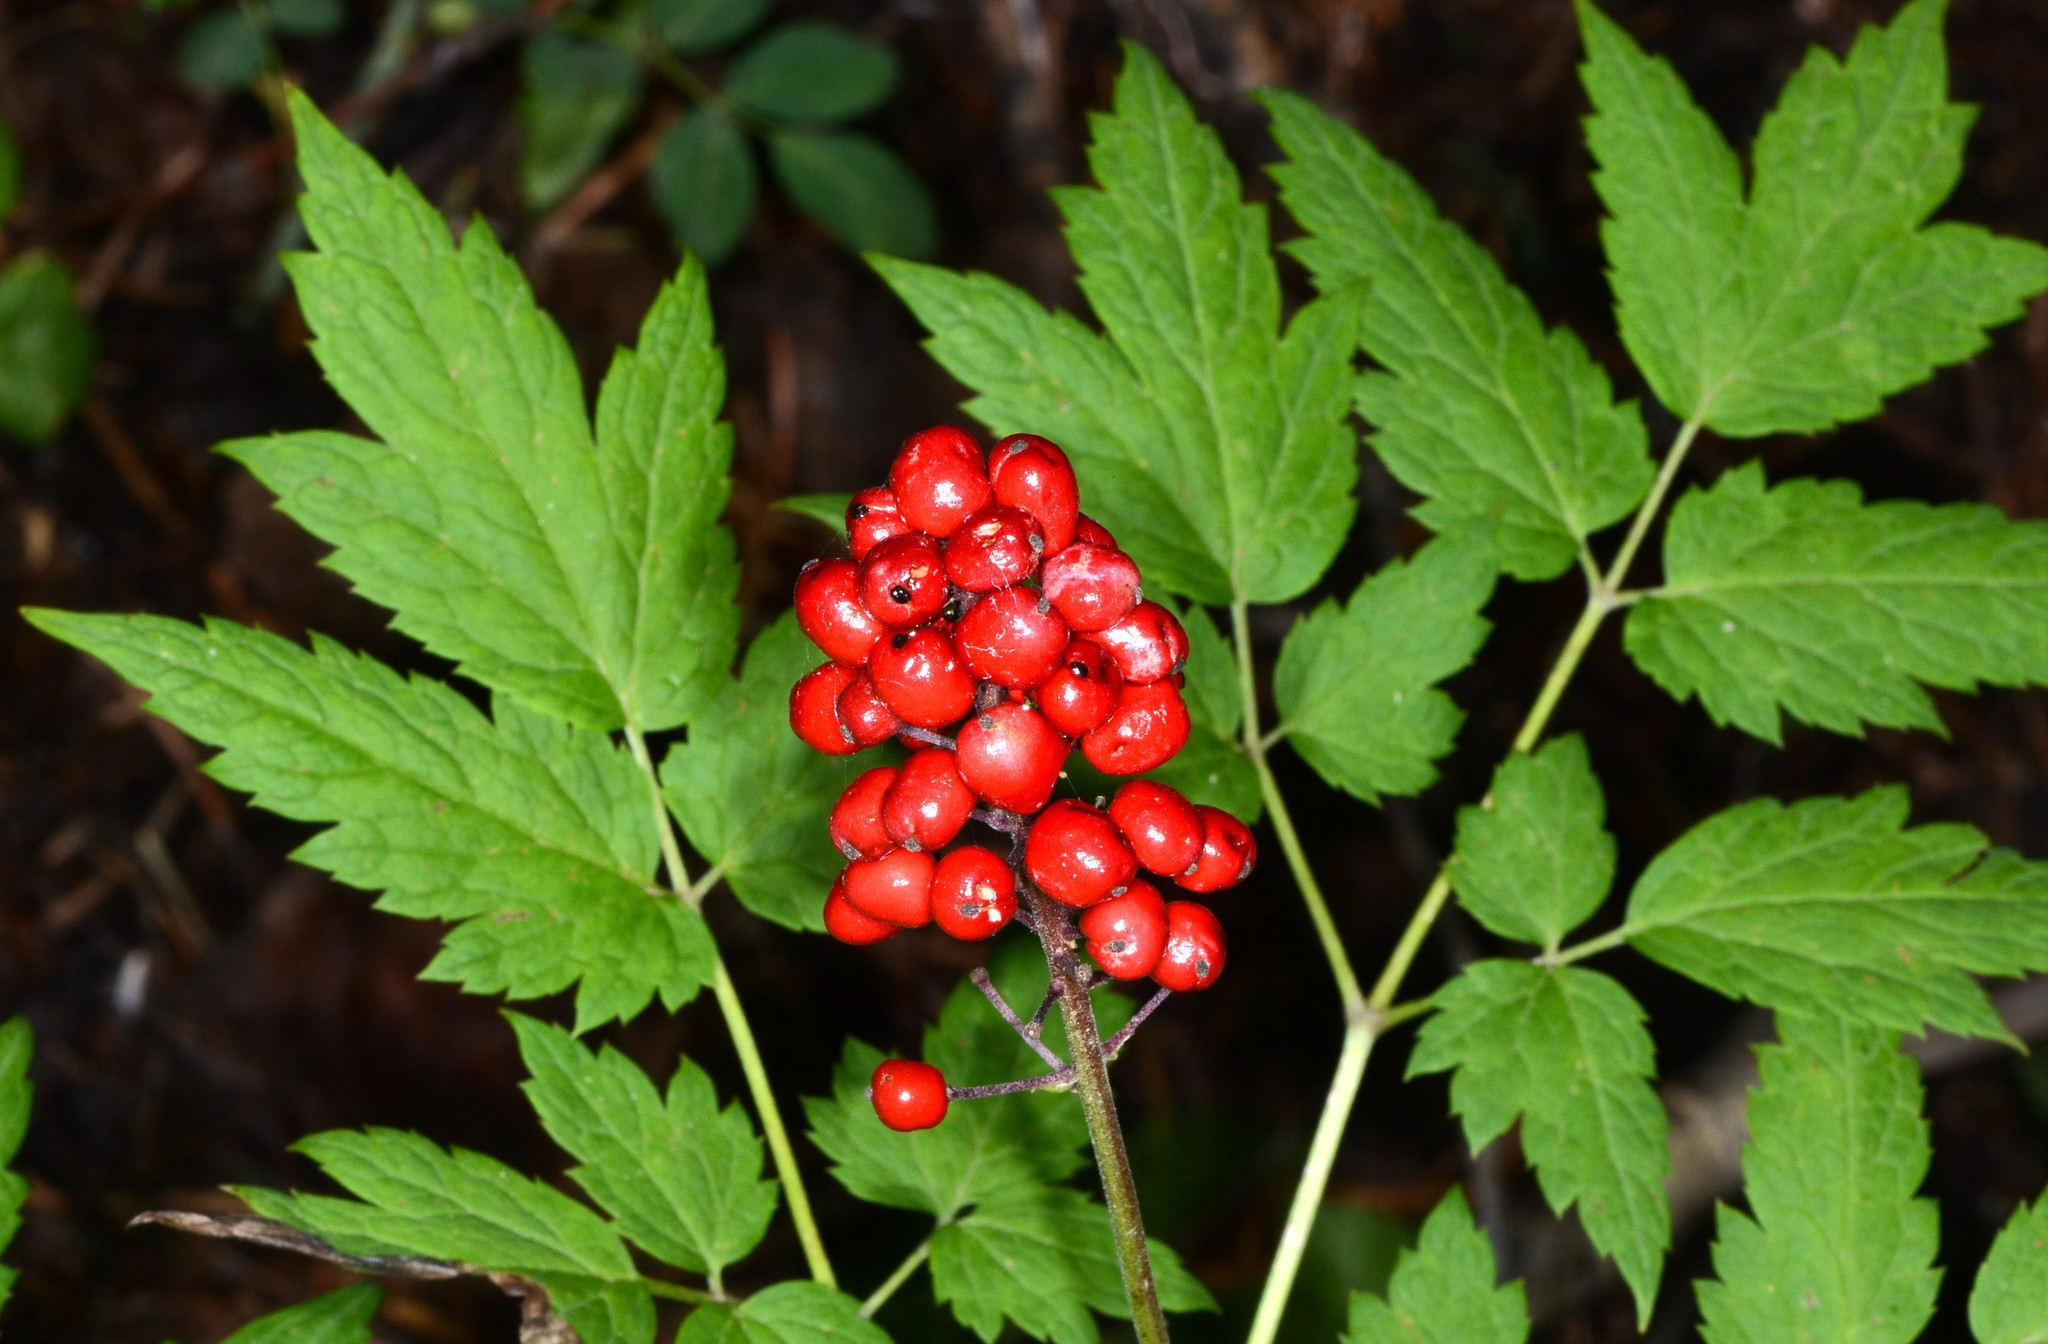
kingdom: Plantae
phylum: Tracheophyta
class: Magnoliopsida
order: Ranunculales
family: Ranunculaceae
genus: Actaea
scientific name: Actaea rubra
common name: Red baneberry
